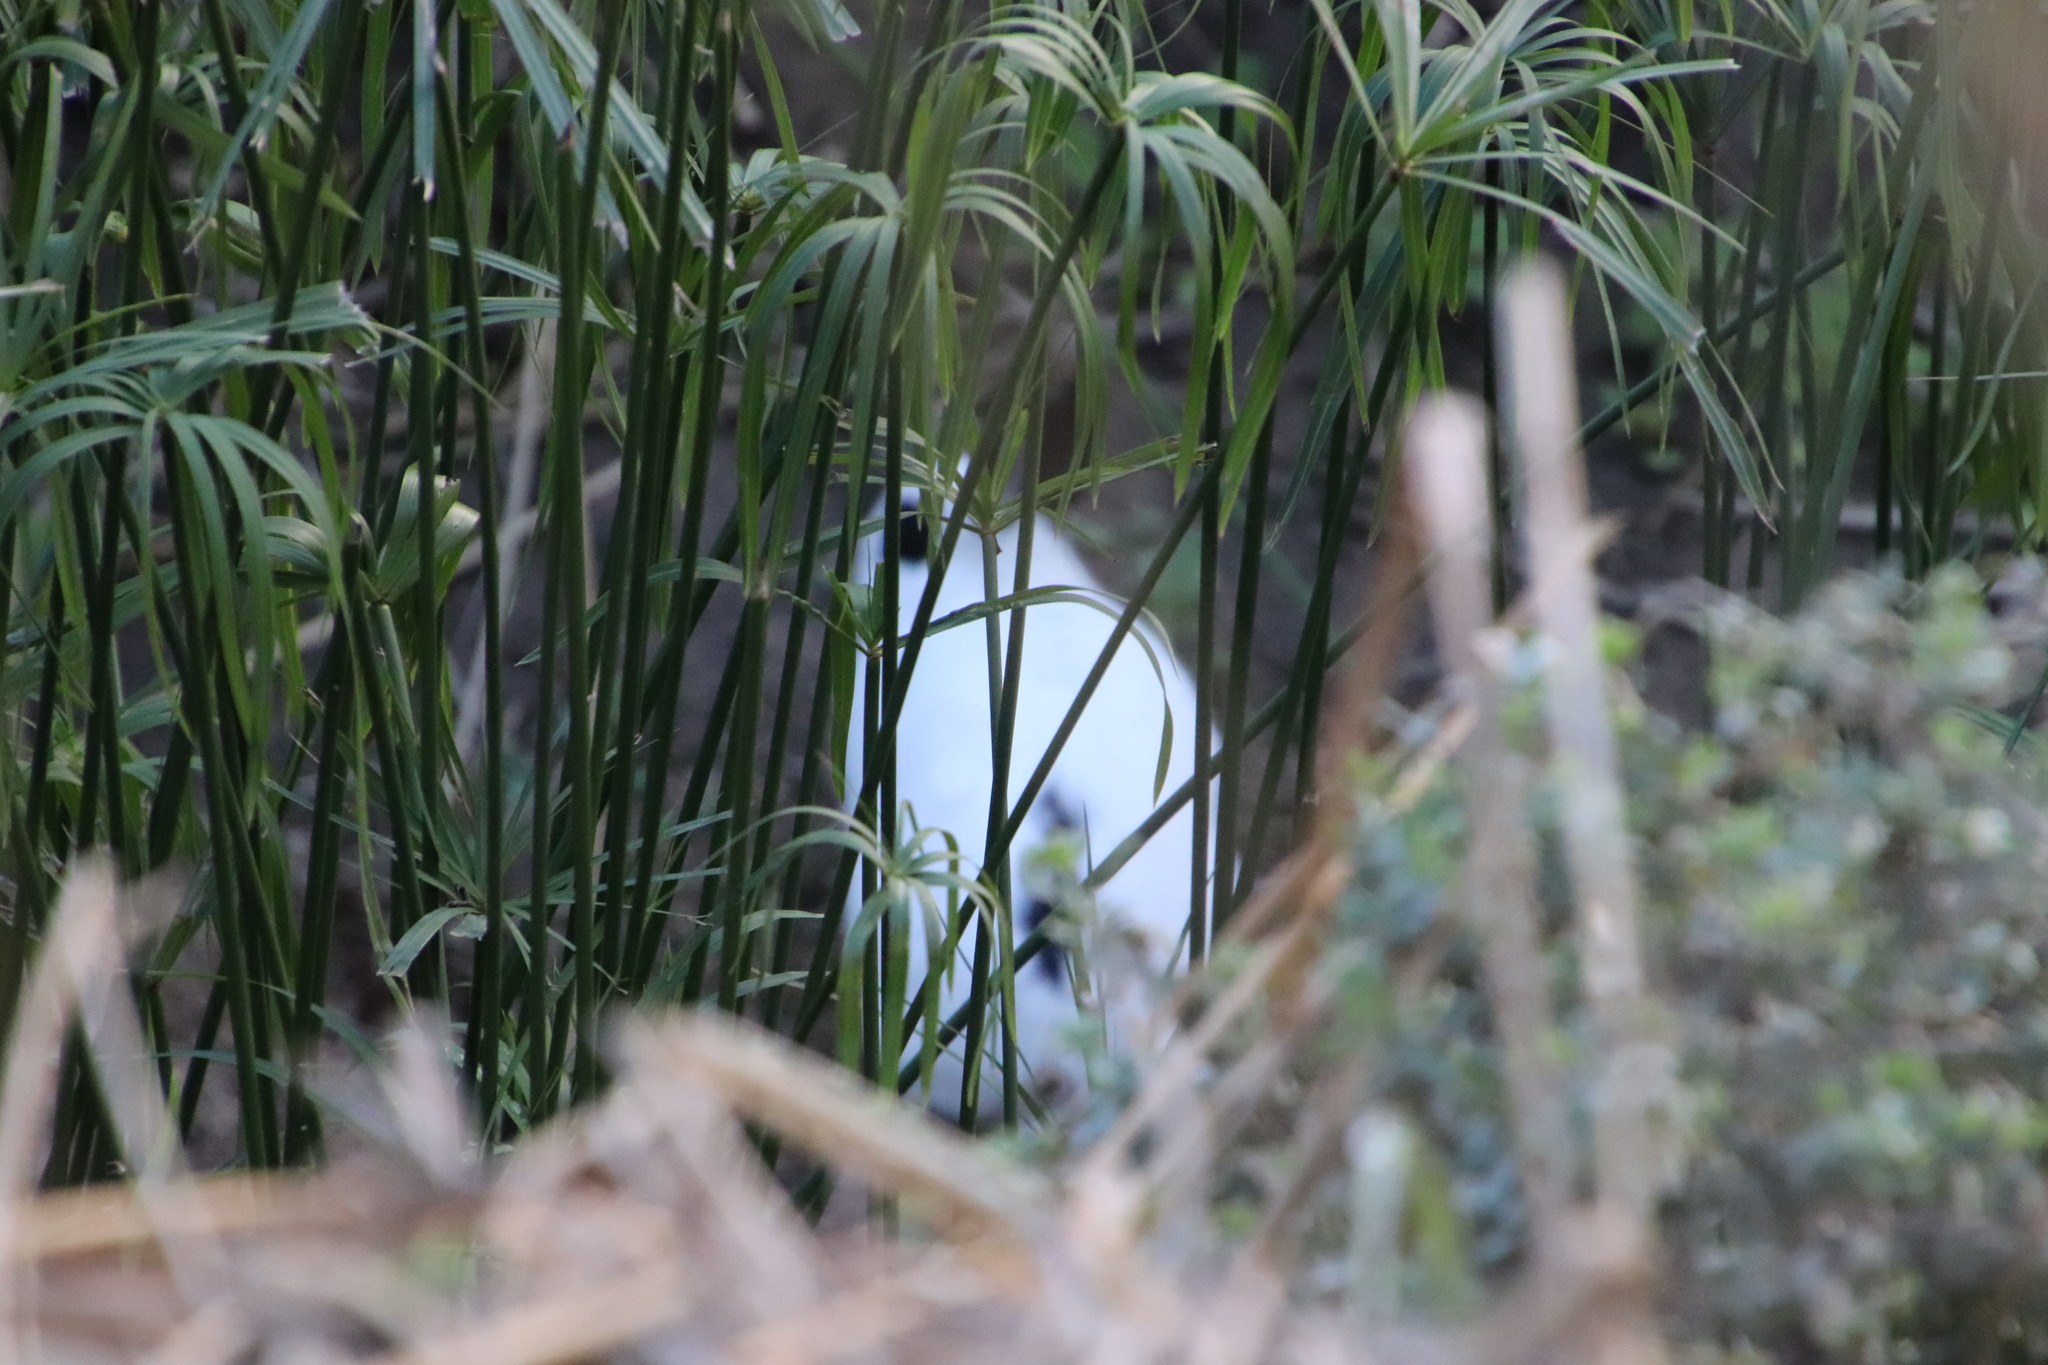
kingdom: Animalia
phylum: Chordata
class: Mammalia
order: Lagomorpha
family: Leporidae
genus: Oryctolagus
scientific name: Oryctolagus cuniculus
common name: European rabbit
